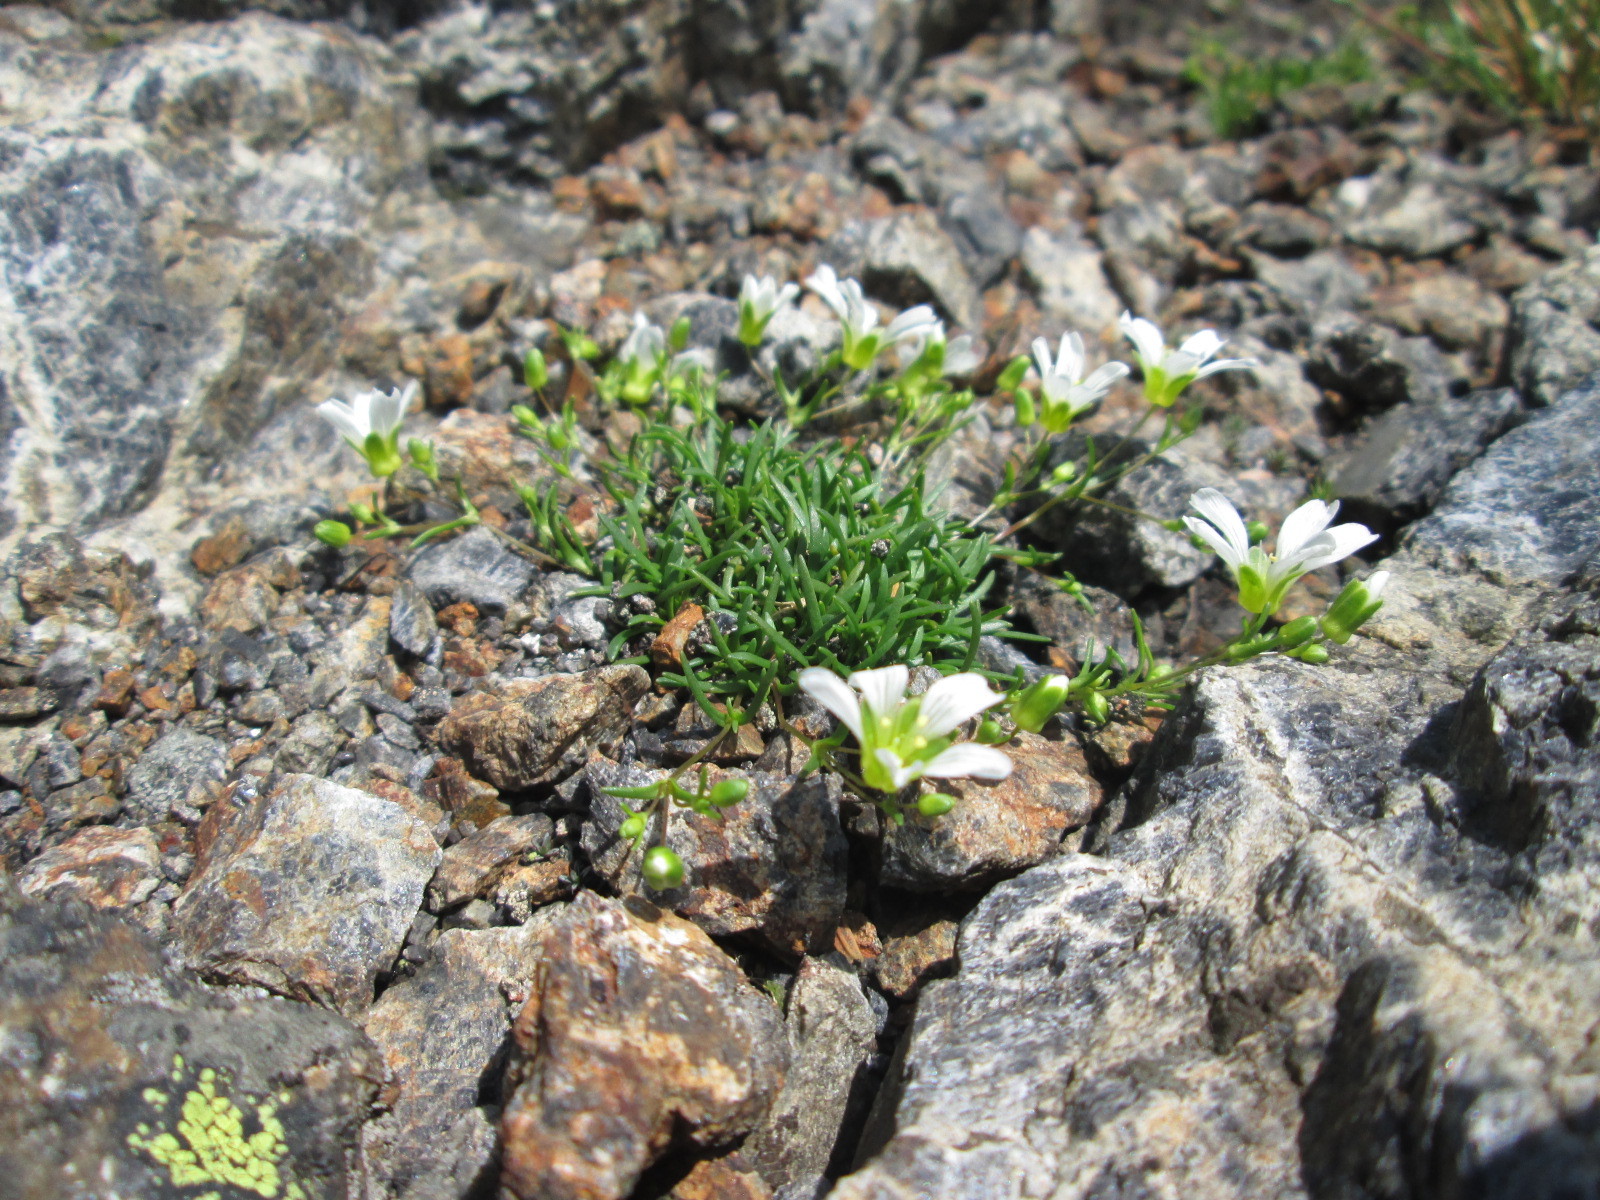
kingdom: Plantae
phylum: Tracheophyta
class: Magnoliopsida
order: Caryophyllales
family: Caryophyllaceae
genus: Geocarpon
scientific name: Geocarpon groenlandicum
